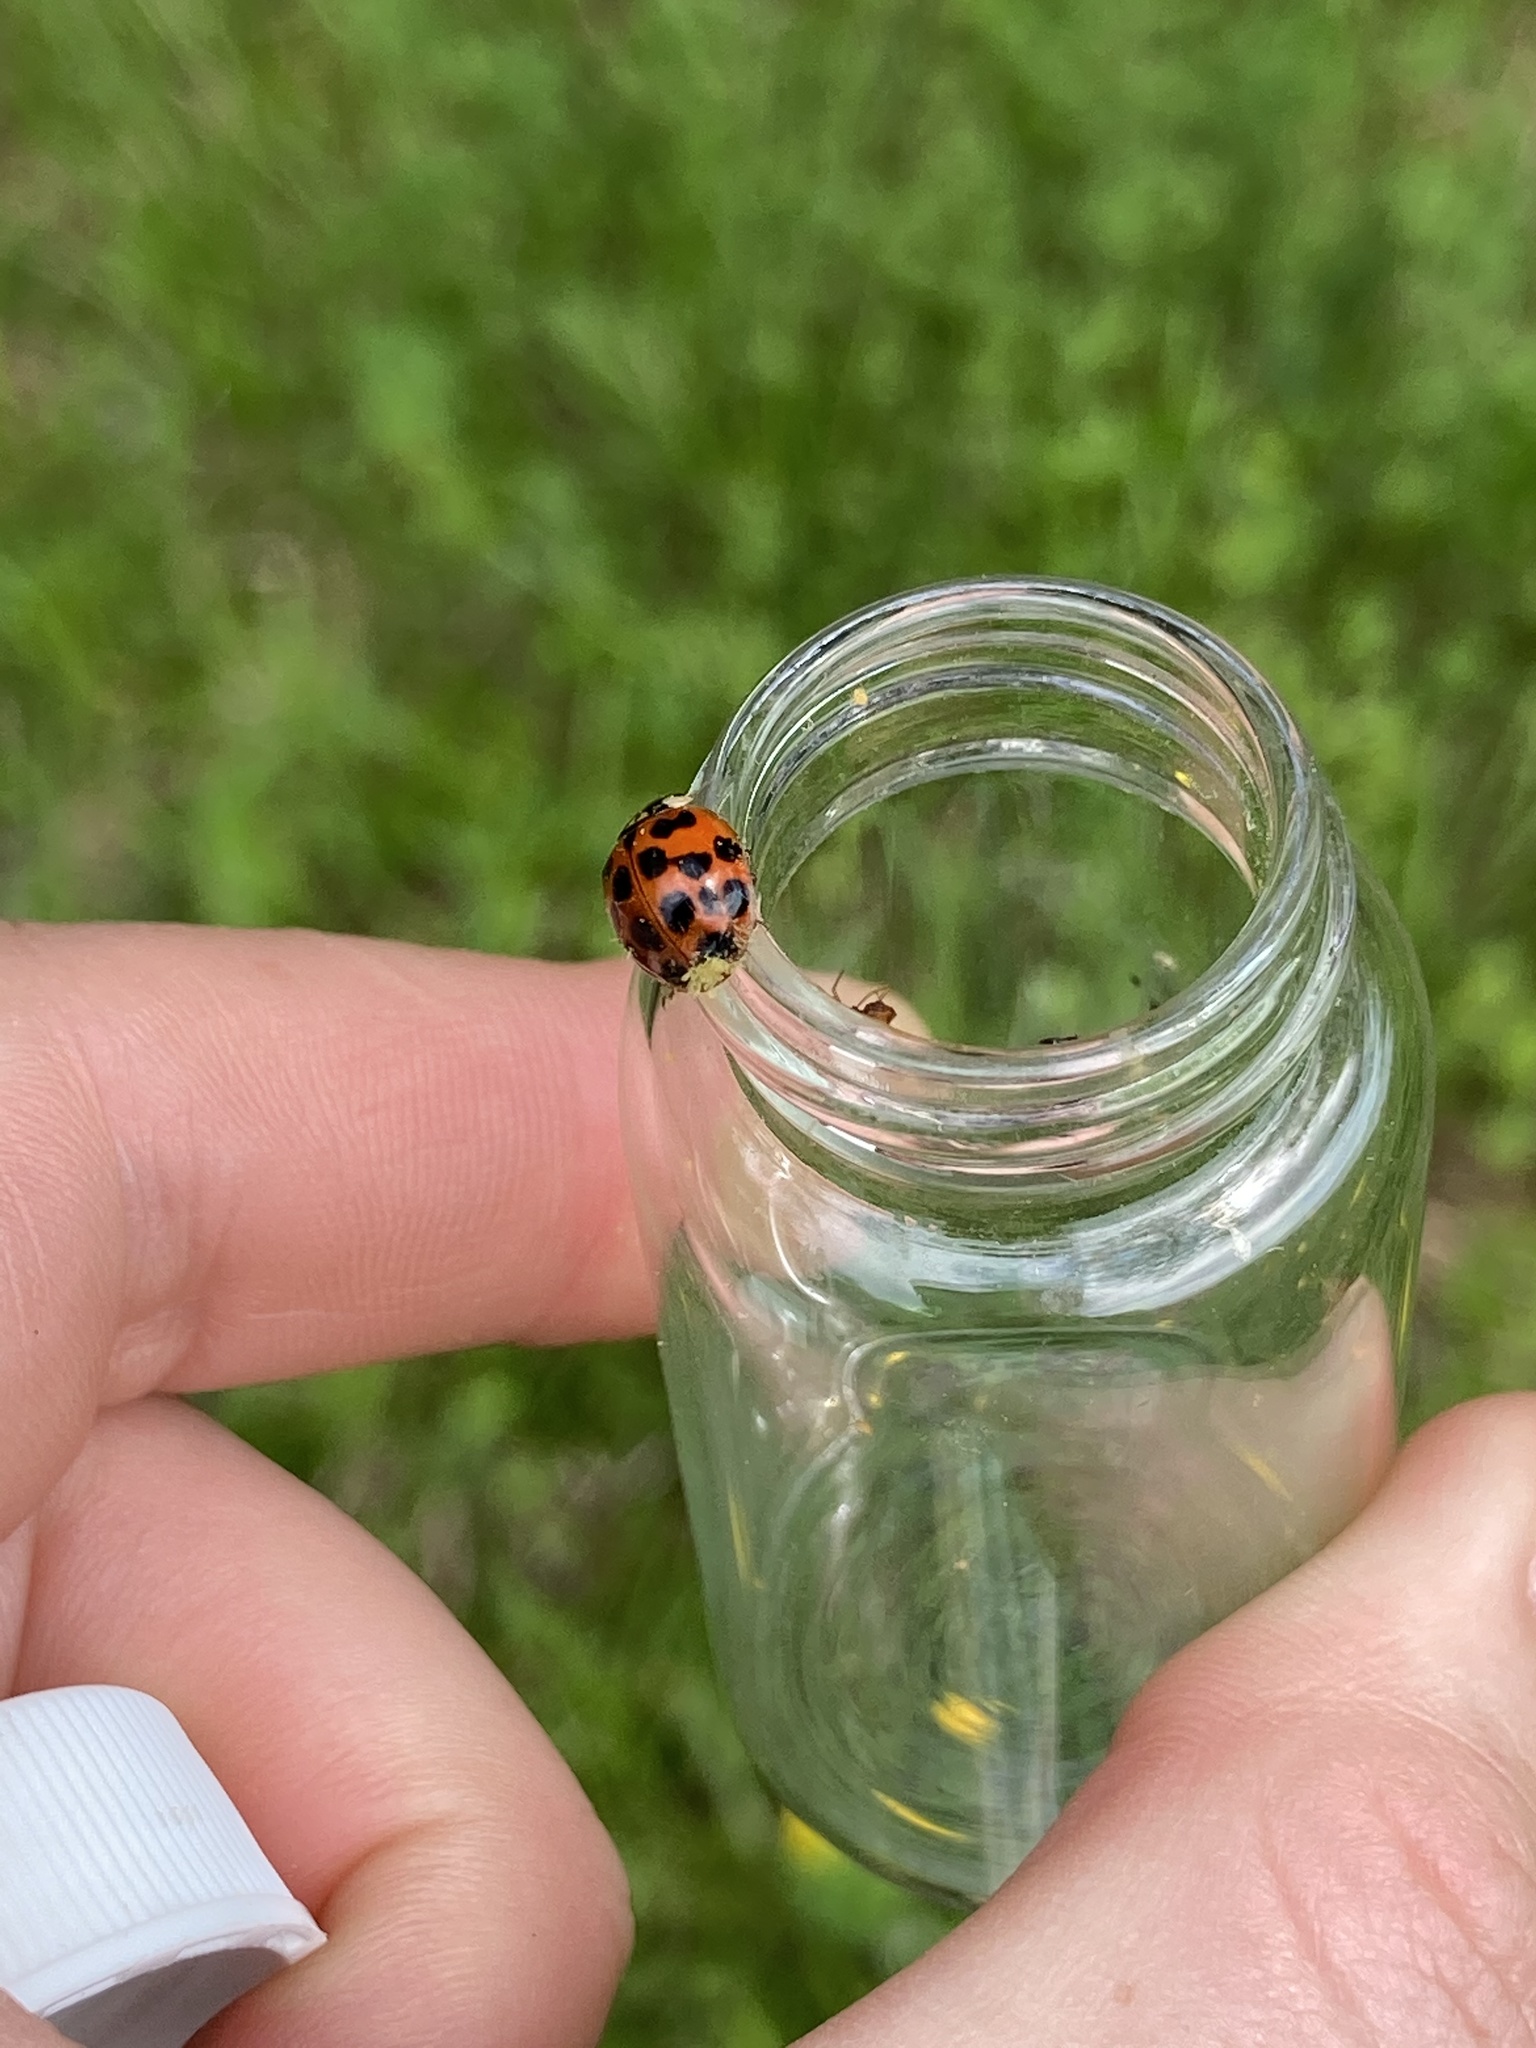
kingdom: Animalia
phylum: Arthropoda
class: Insecta
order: Coleoptera
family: Coccinellidae
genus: Harmonia
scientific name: Harmonia axyridis
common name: Harlequin ladybird
